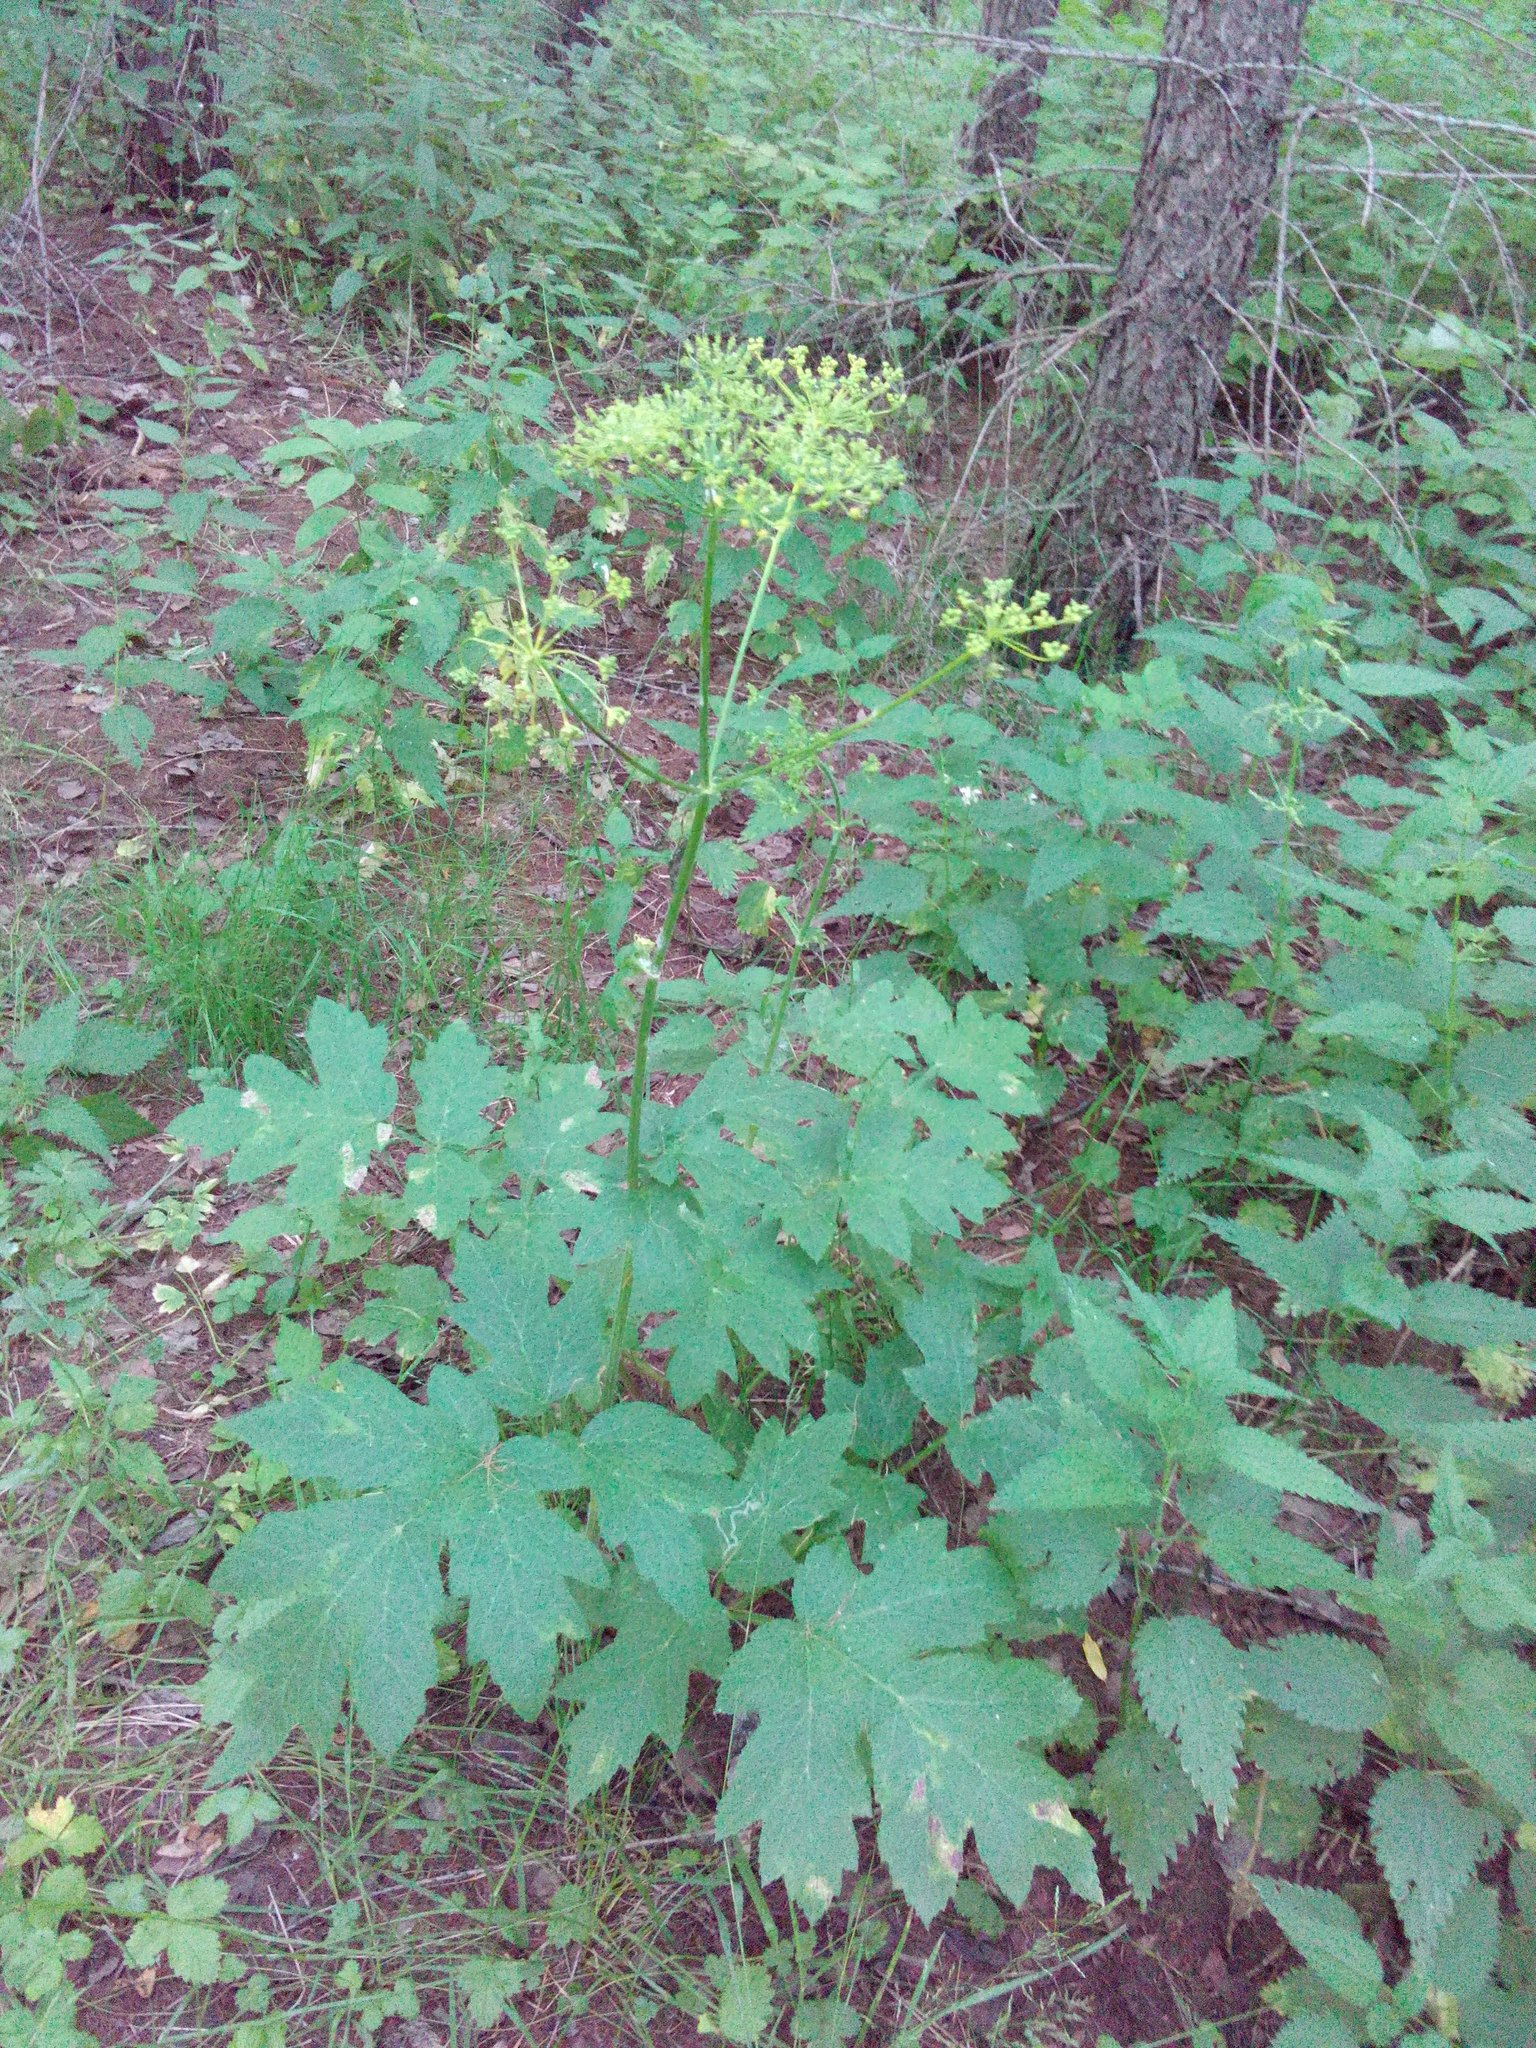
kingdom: Plantae
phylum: Tracheophyta
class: Magnoliopsida
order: Apiales
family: Apiaceae
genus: Heracleum
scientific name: Heracleum sphondylium
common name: Hogweed
